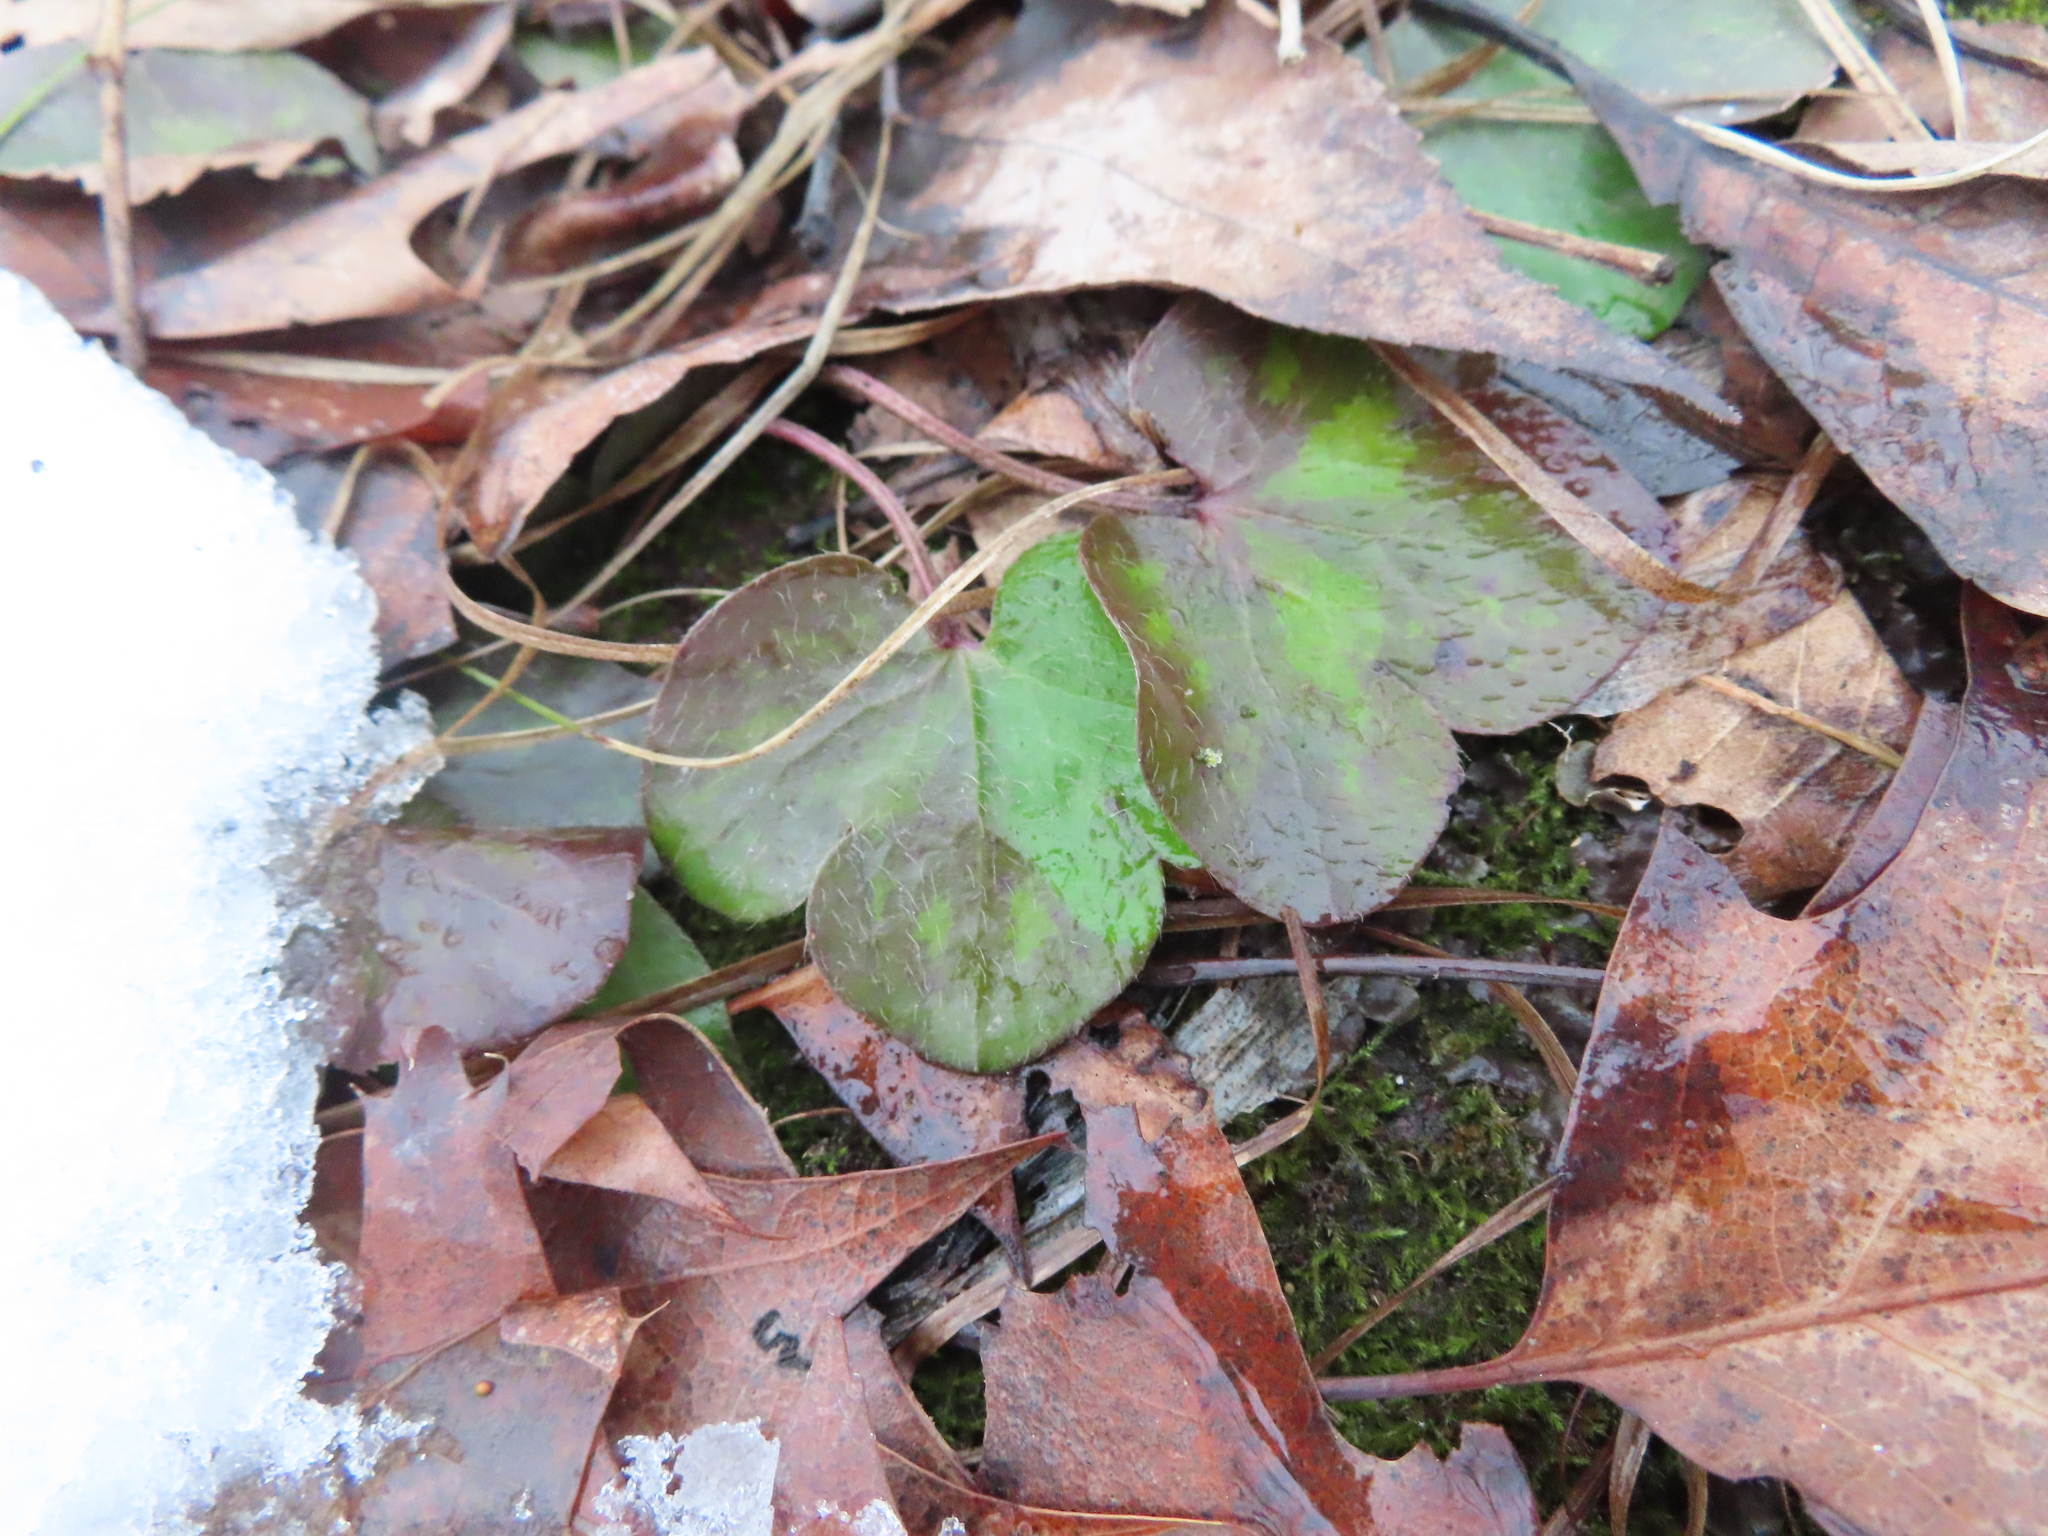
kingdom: Plantae
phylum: Tracheophyta
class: Magnoliopsida
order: Ranunculales
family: Ranunculaceae
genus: Hepatica
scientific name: Hepatica americana
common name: American hepatica
